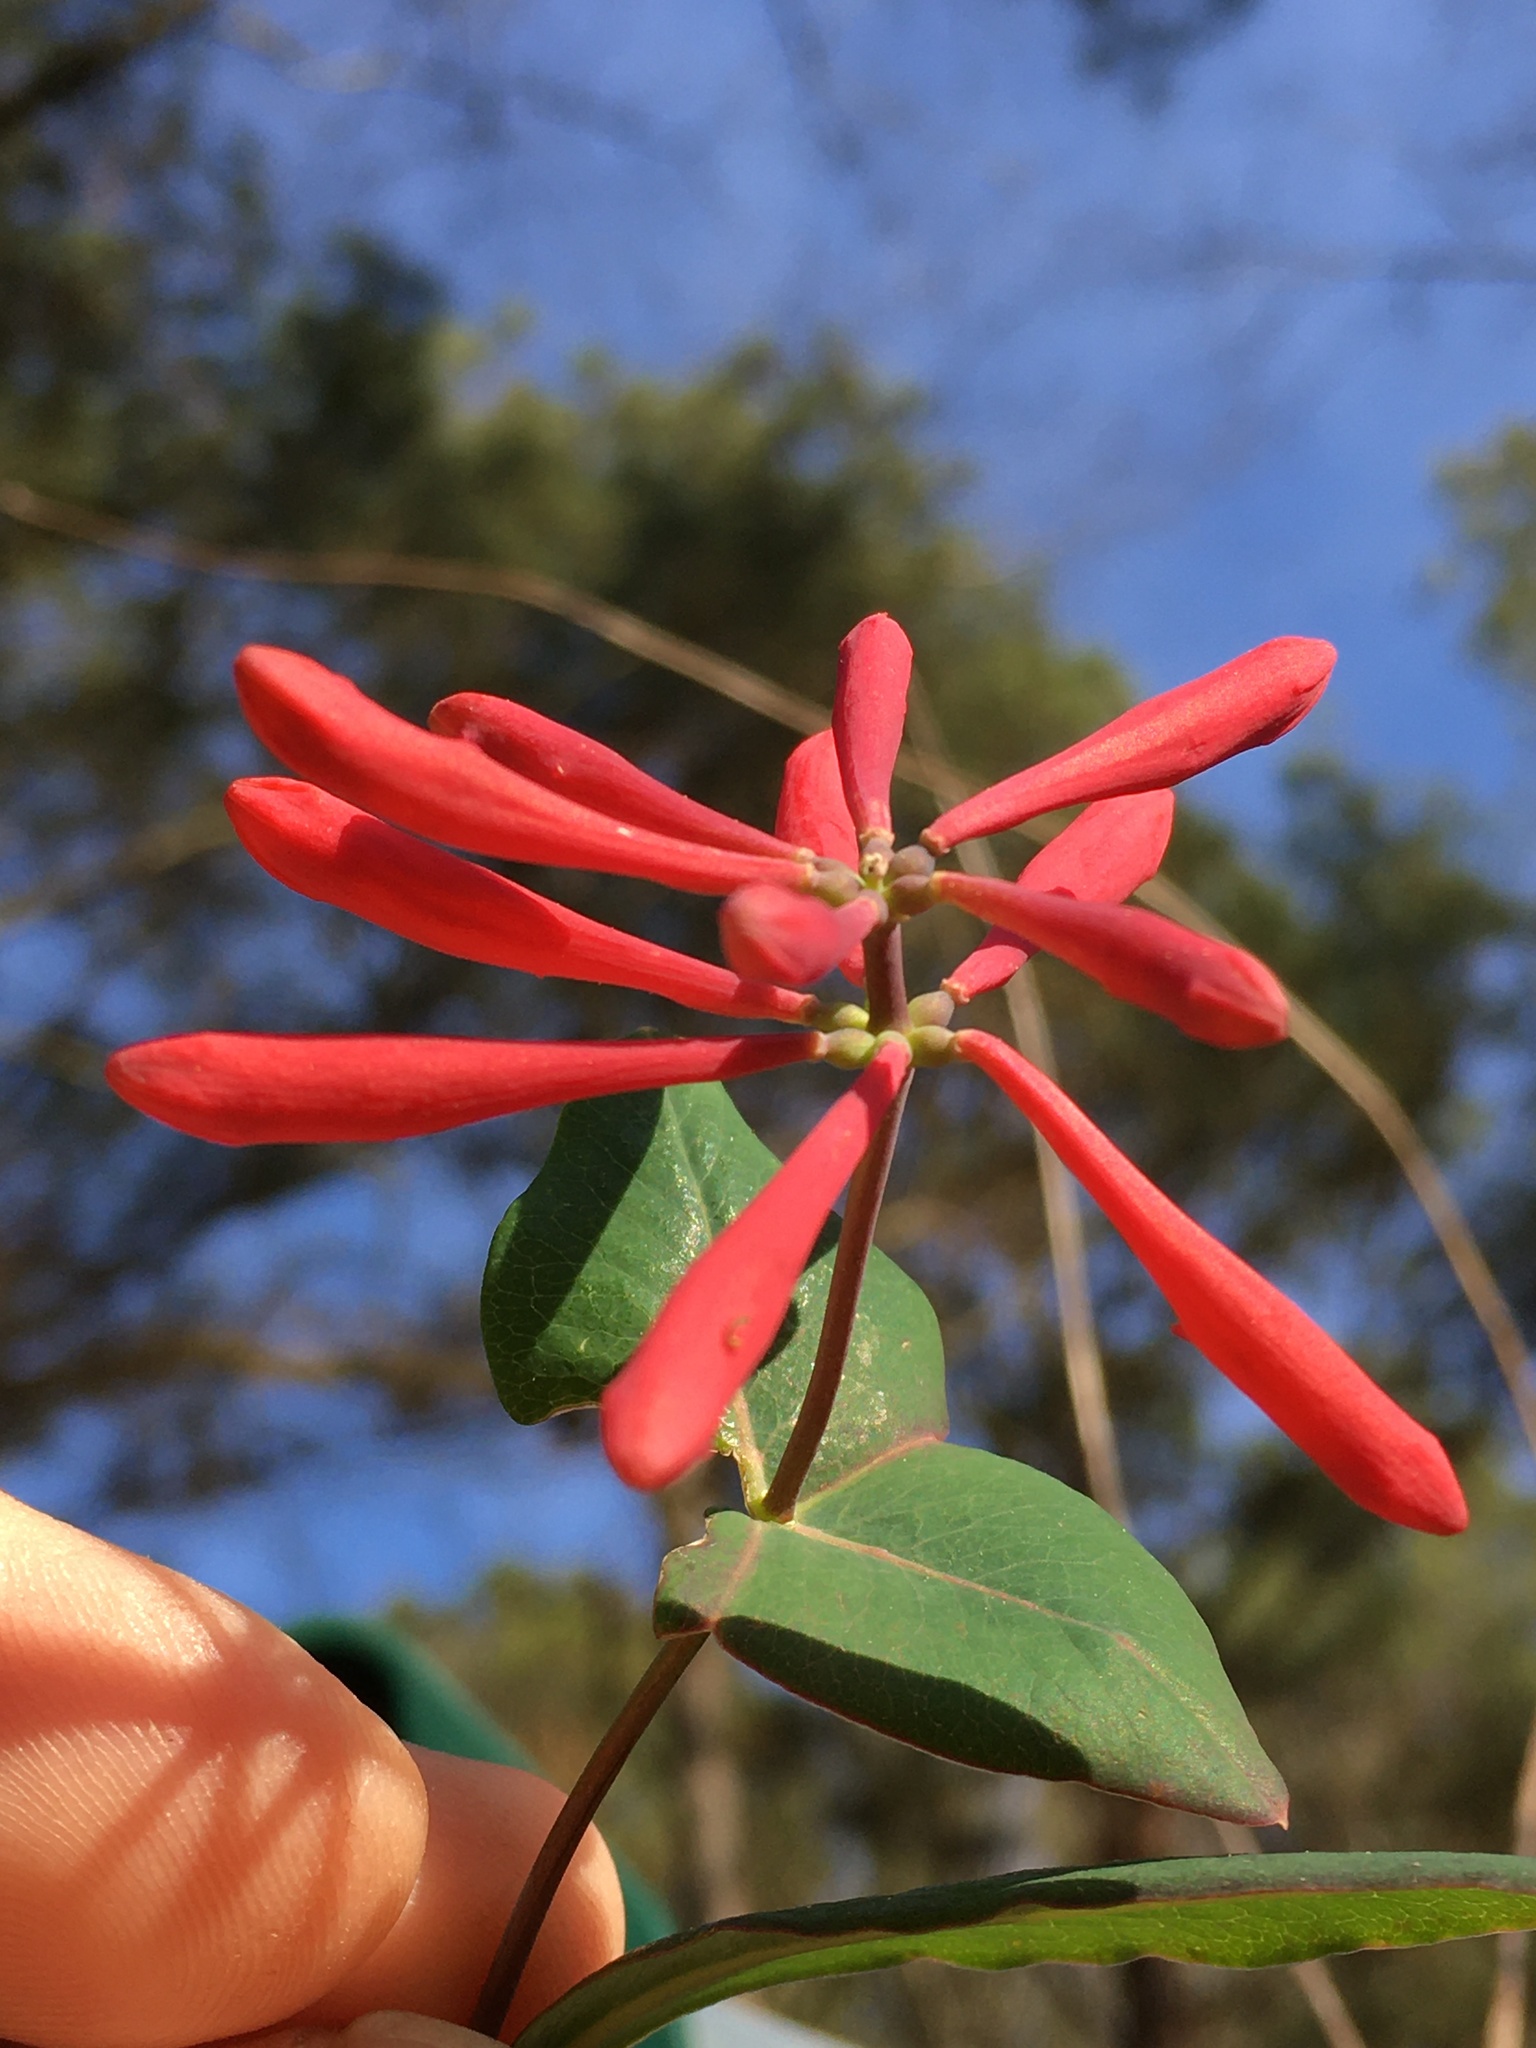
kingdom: Plantae
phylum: Tracheophyta
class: Magnoliopsida
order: Dipsacales
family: Caprifoliaceae
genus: Lonicera
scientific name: Lonicera sempervirens
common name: Coral honeysuckle
